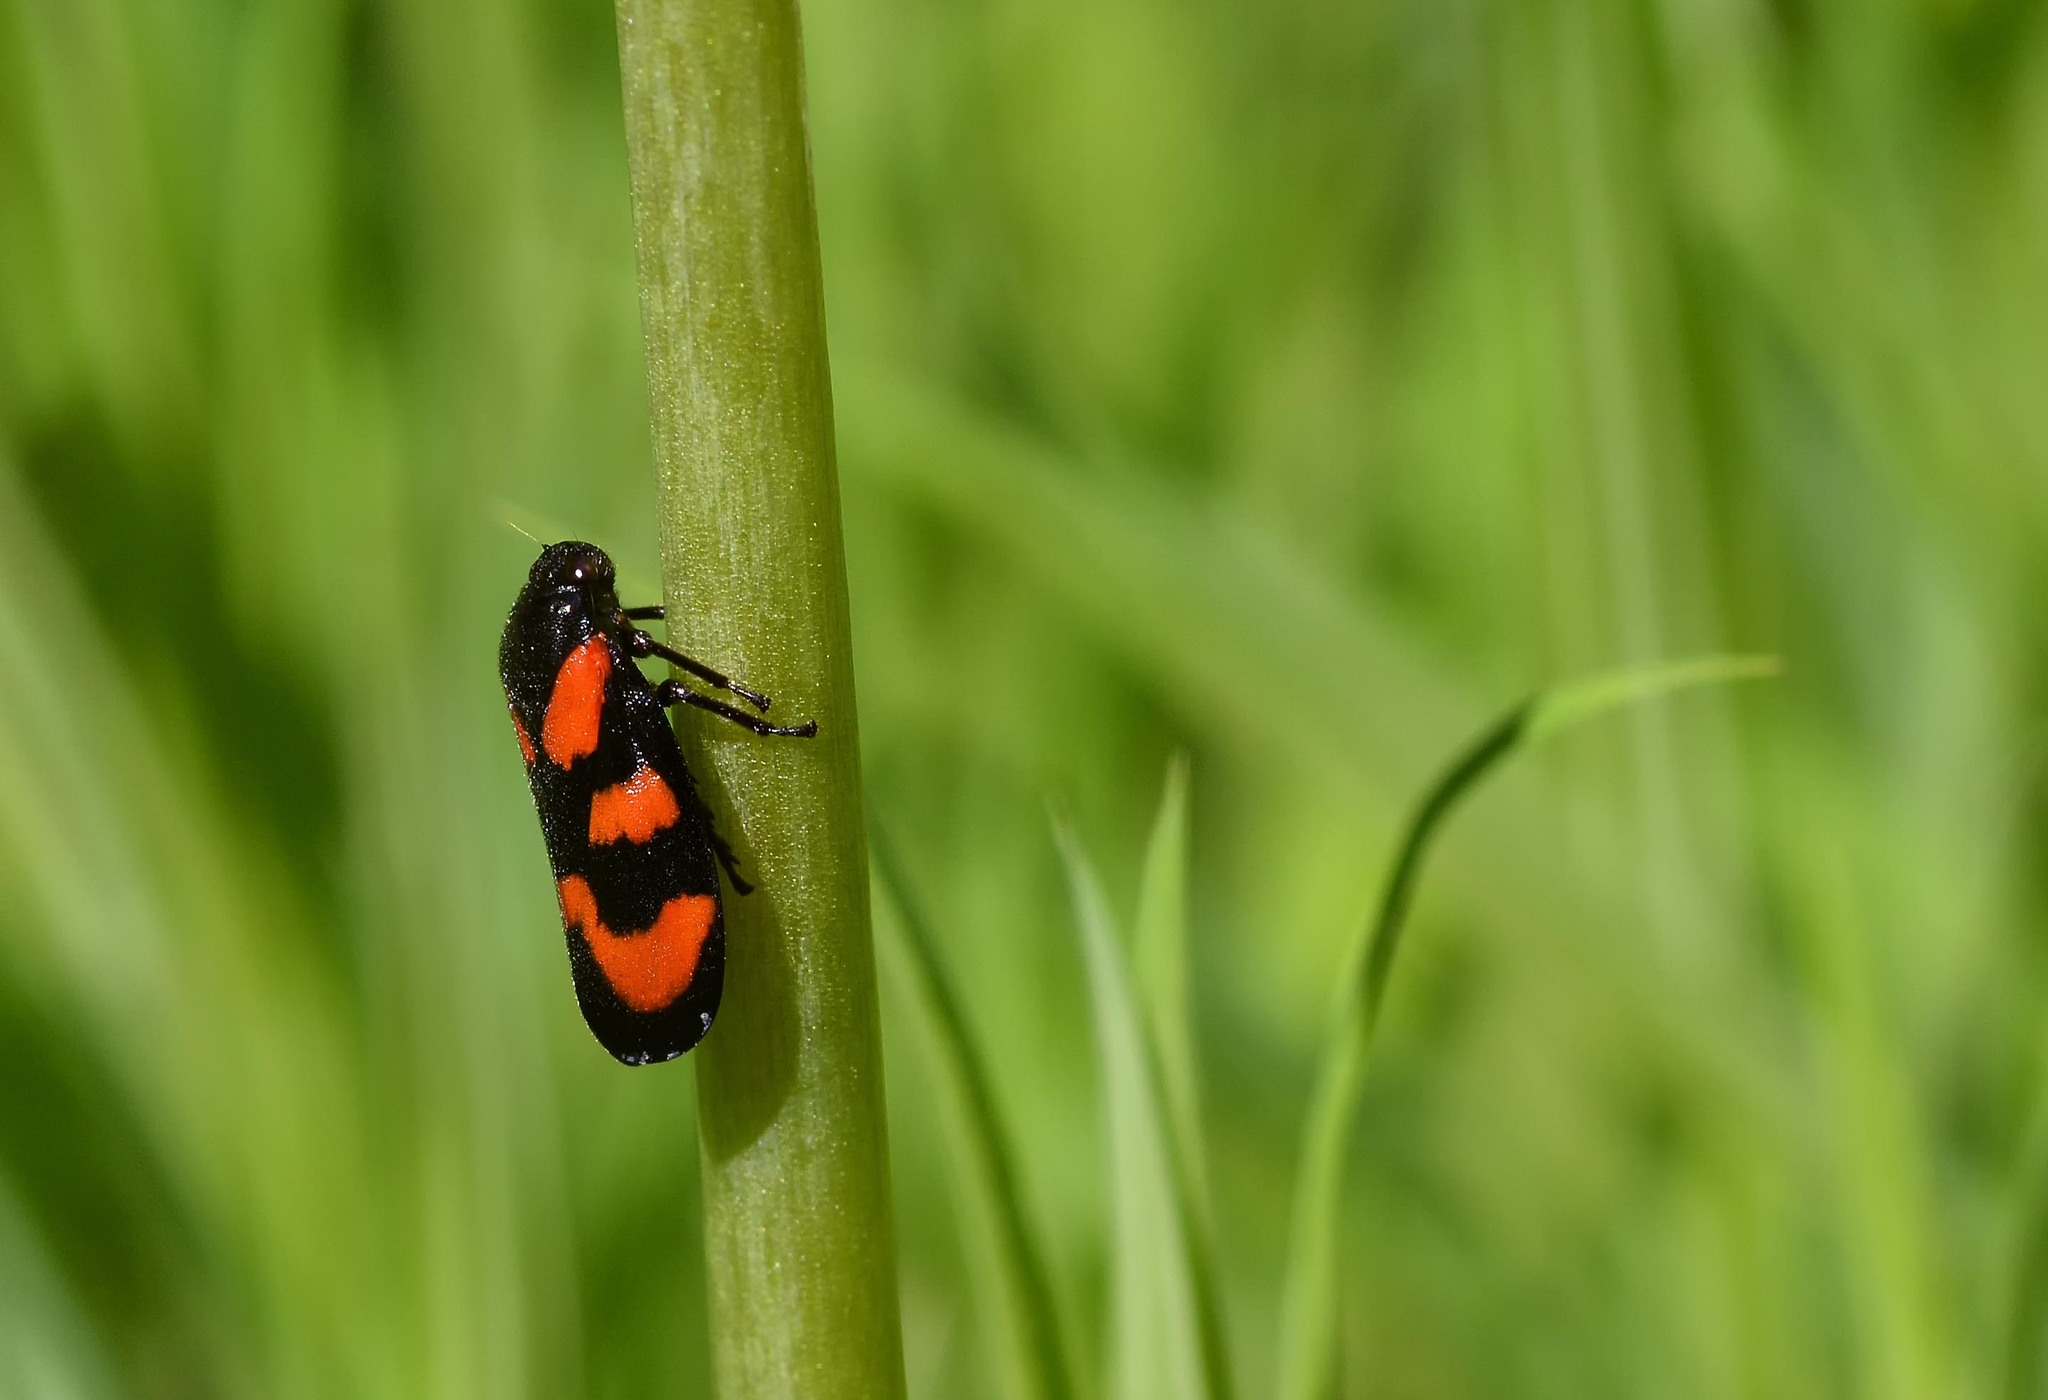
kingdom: Animalia
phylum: Arthropoda
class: Insecta
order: Hemiptera
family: Cercopidae
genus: Cercopis
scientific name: Cercopis vulnerata
